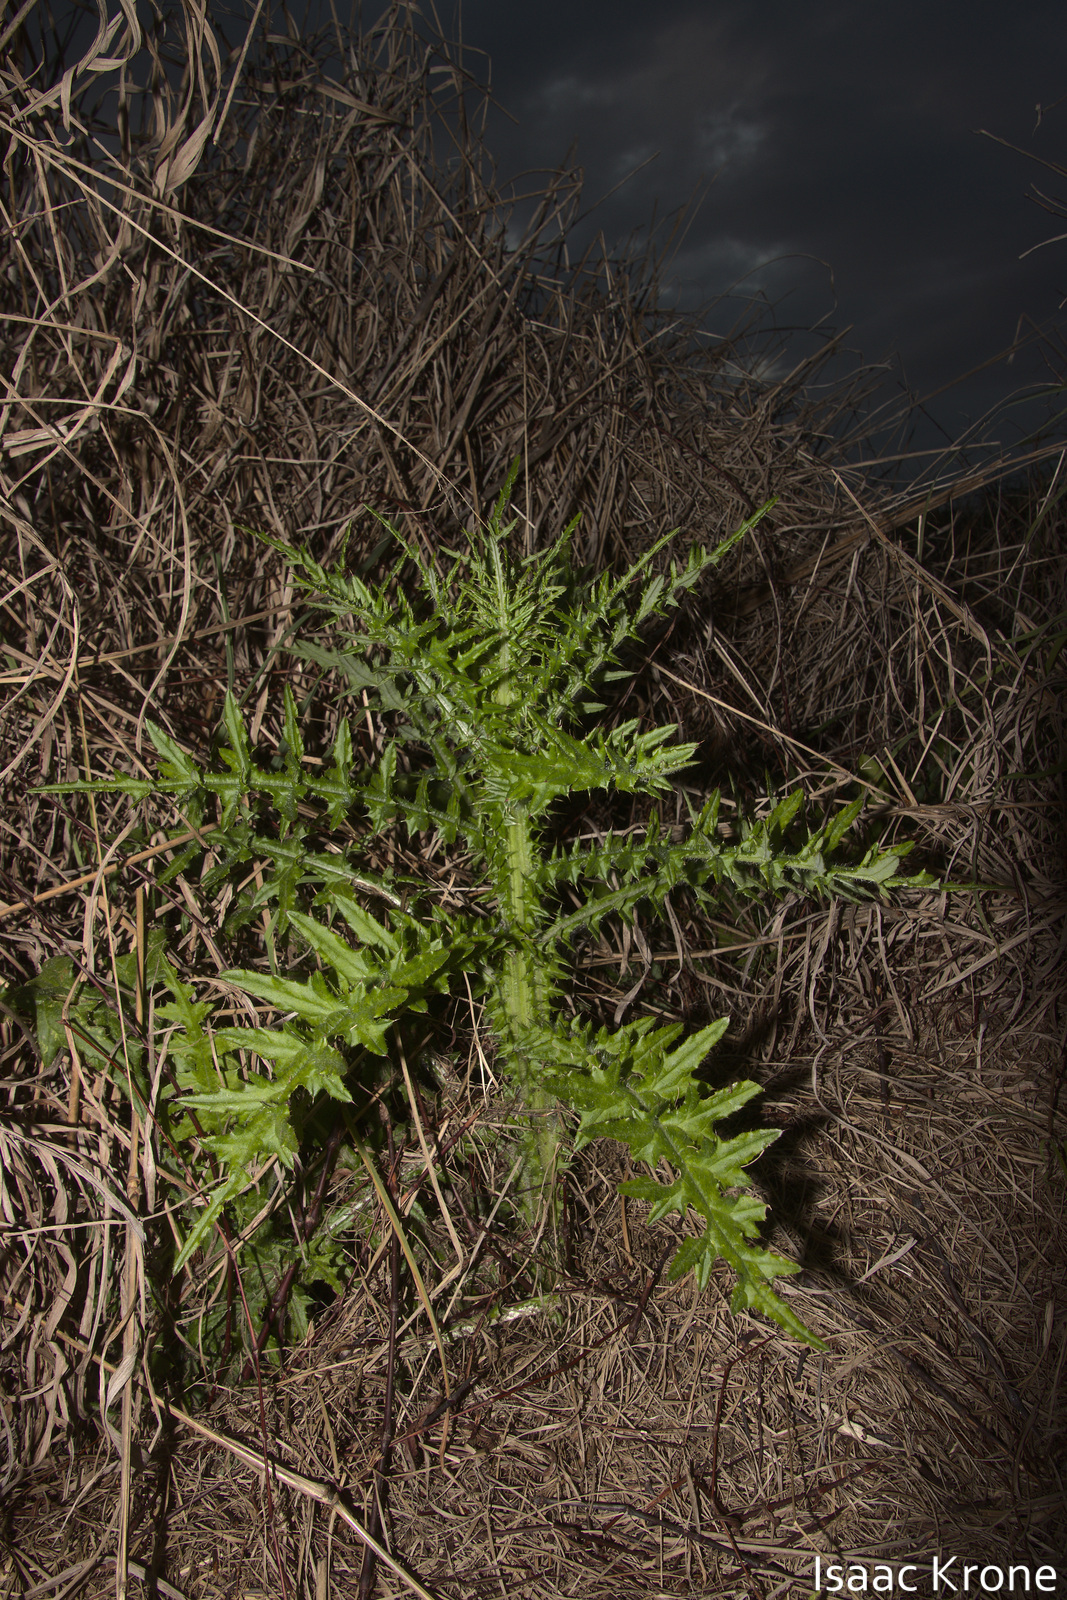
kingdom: Plantae
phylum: Tracheophyta
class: Magnoliopsida
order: Asterales
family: Asteraceae
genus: Cirsium
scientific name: Cirsium horridulum
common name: Bristly thistle
